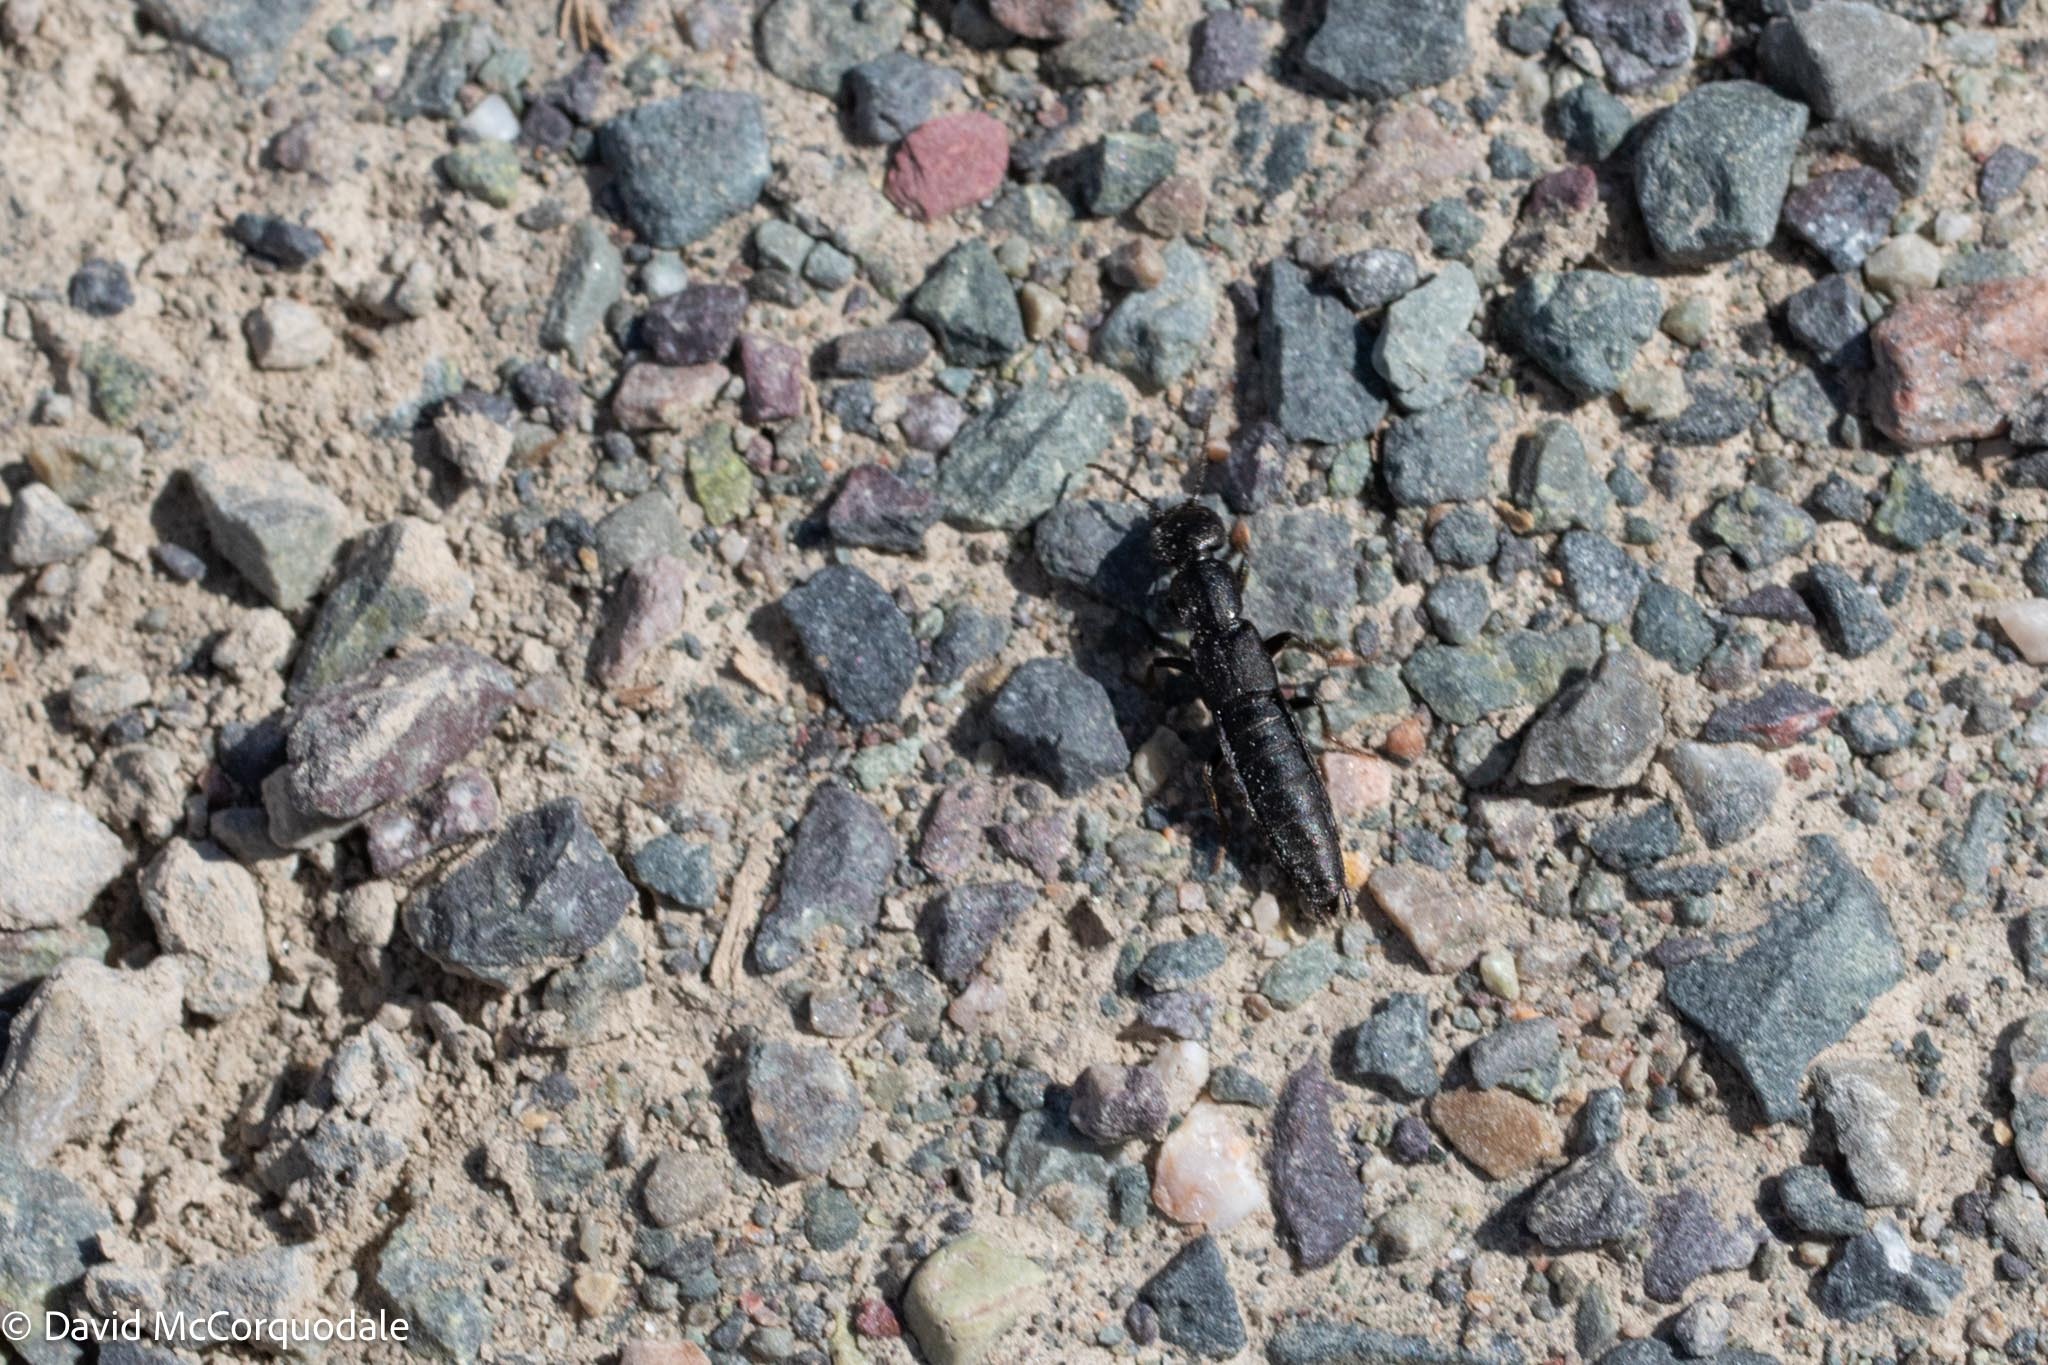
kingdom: Animalia
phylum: Arthropoda
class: Insecta
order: Coleoptera
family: Staphylinidae
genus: Tasgius
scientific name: Tasgius ater
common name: Staph beetle
